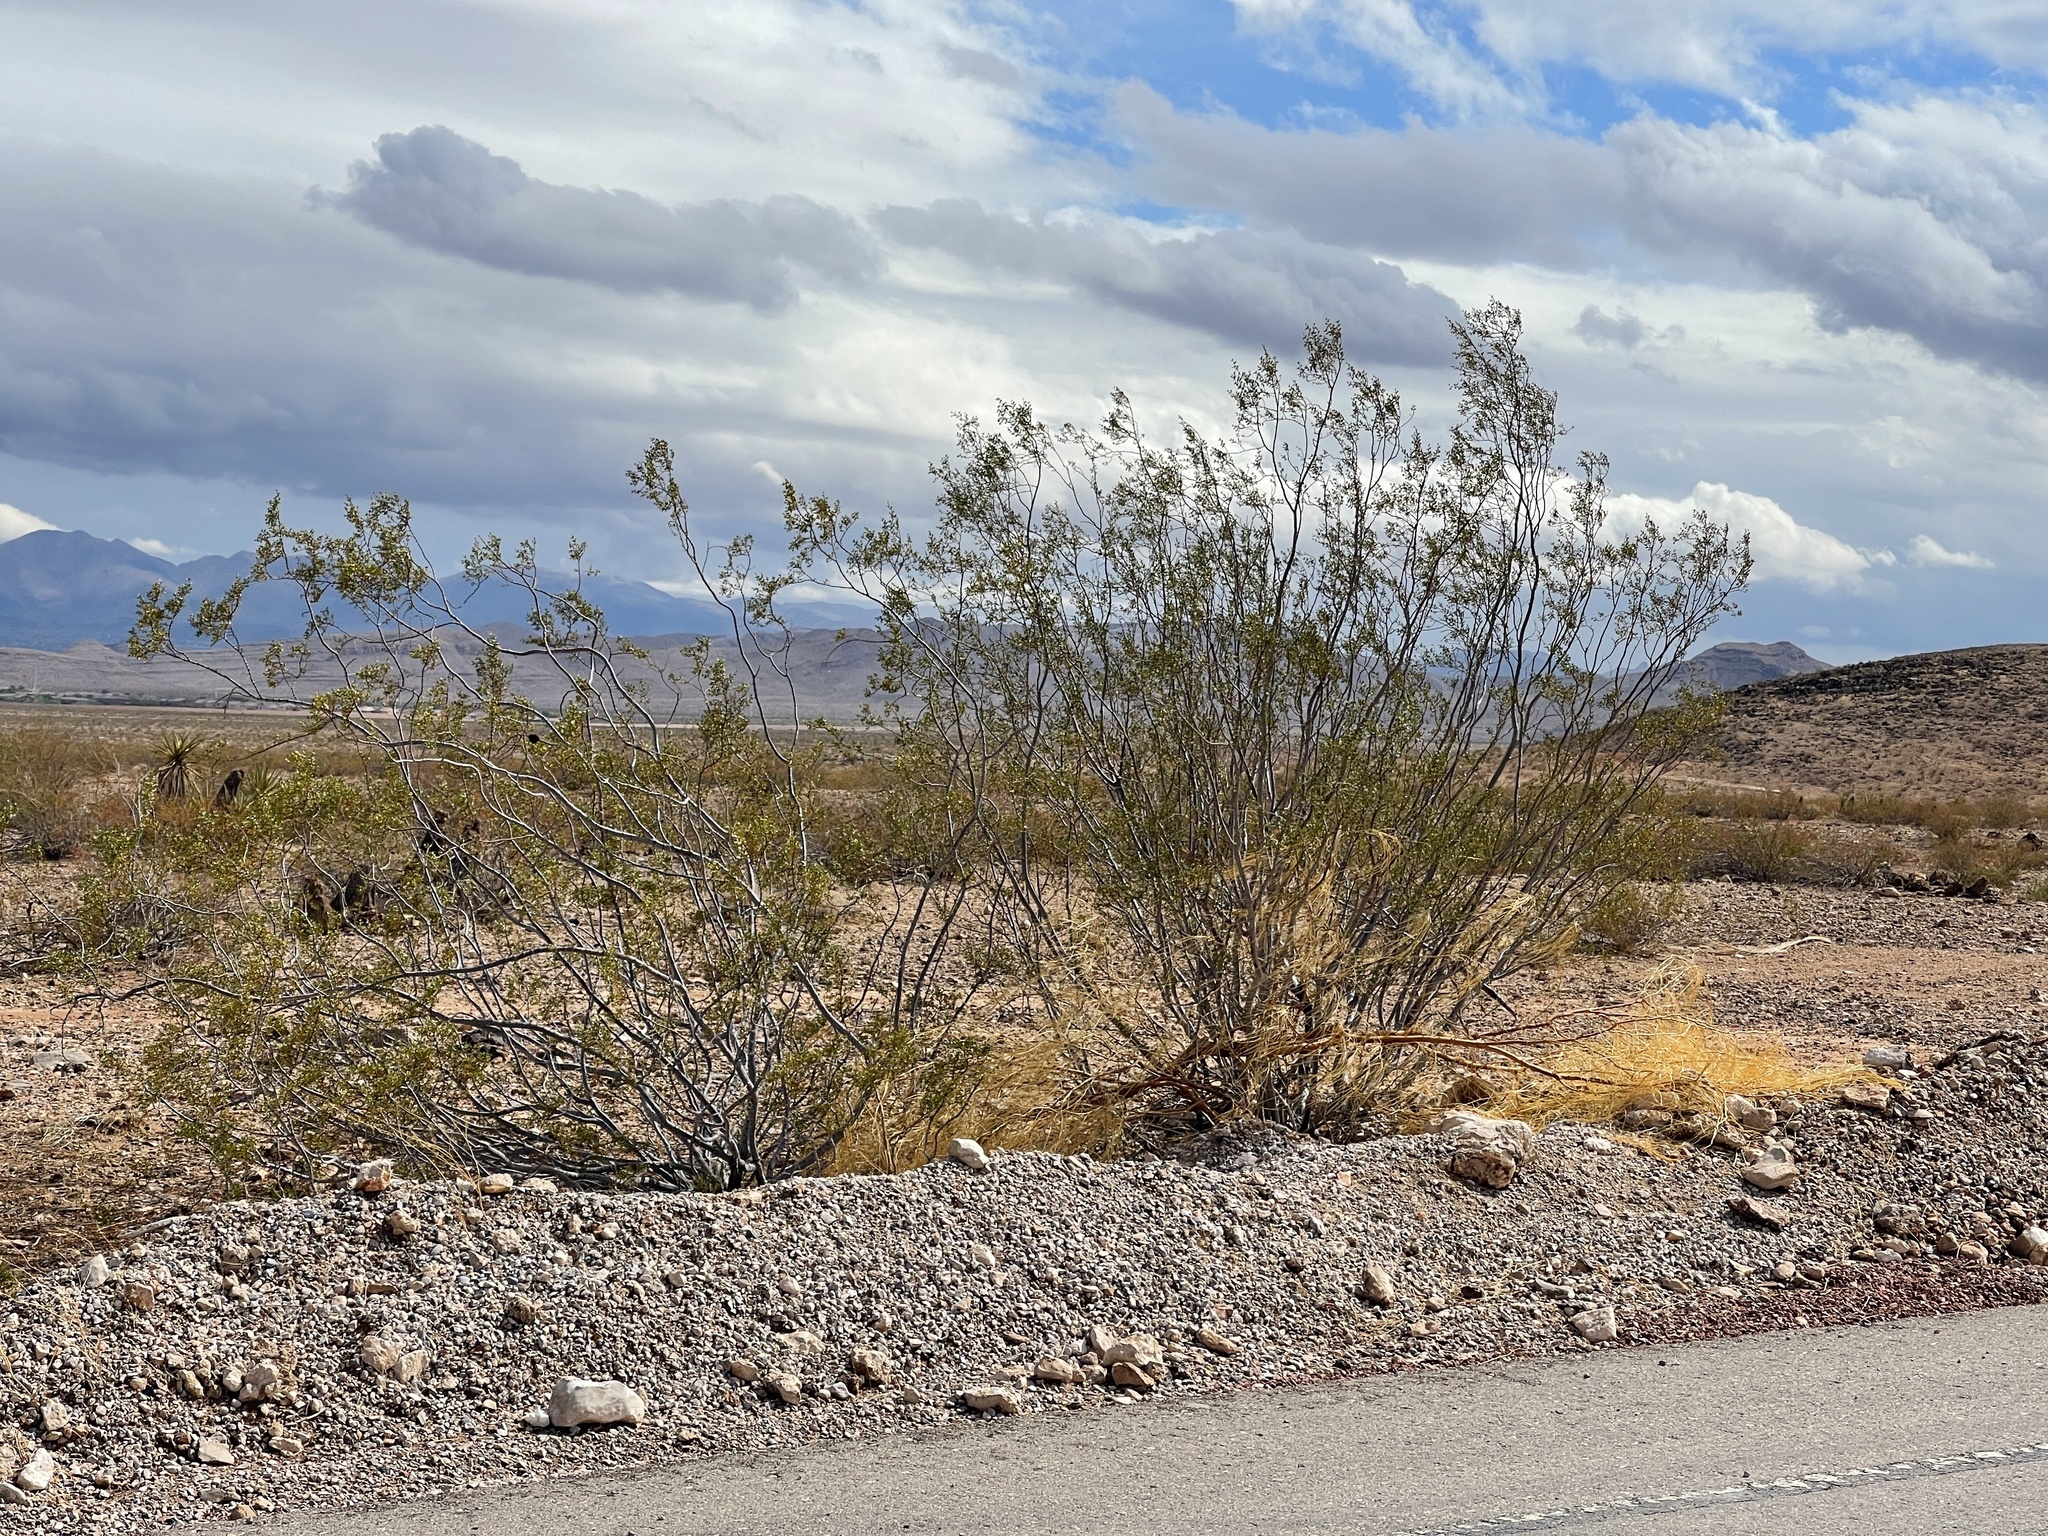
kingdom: Plantae
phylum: Tracheophyta
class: Magnoliopsida
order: Zygophyllales
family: Zygophyllaceae
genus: Larrea
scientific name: Larrea tridentata
